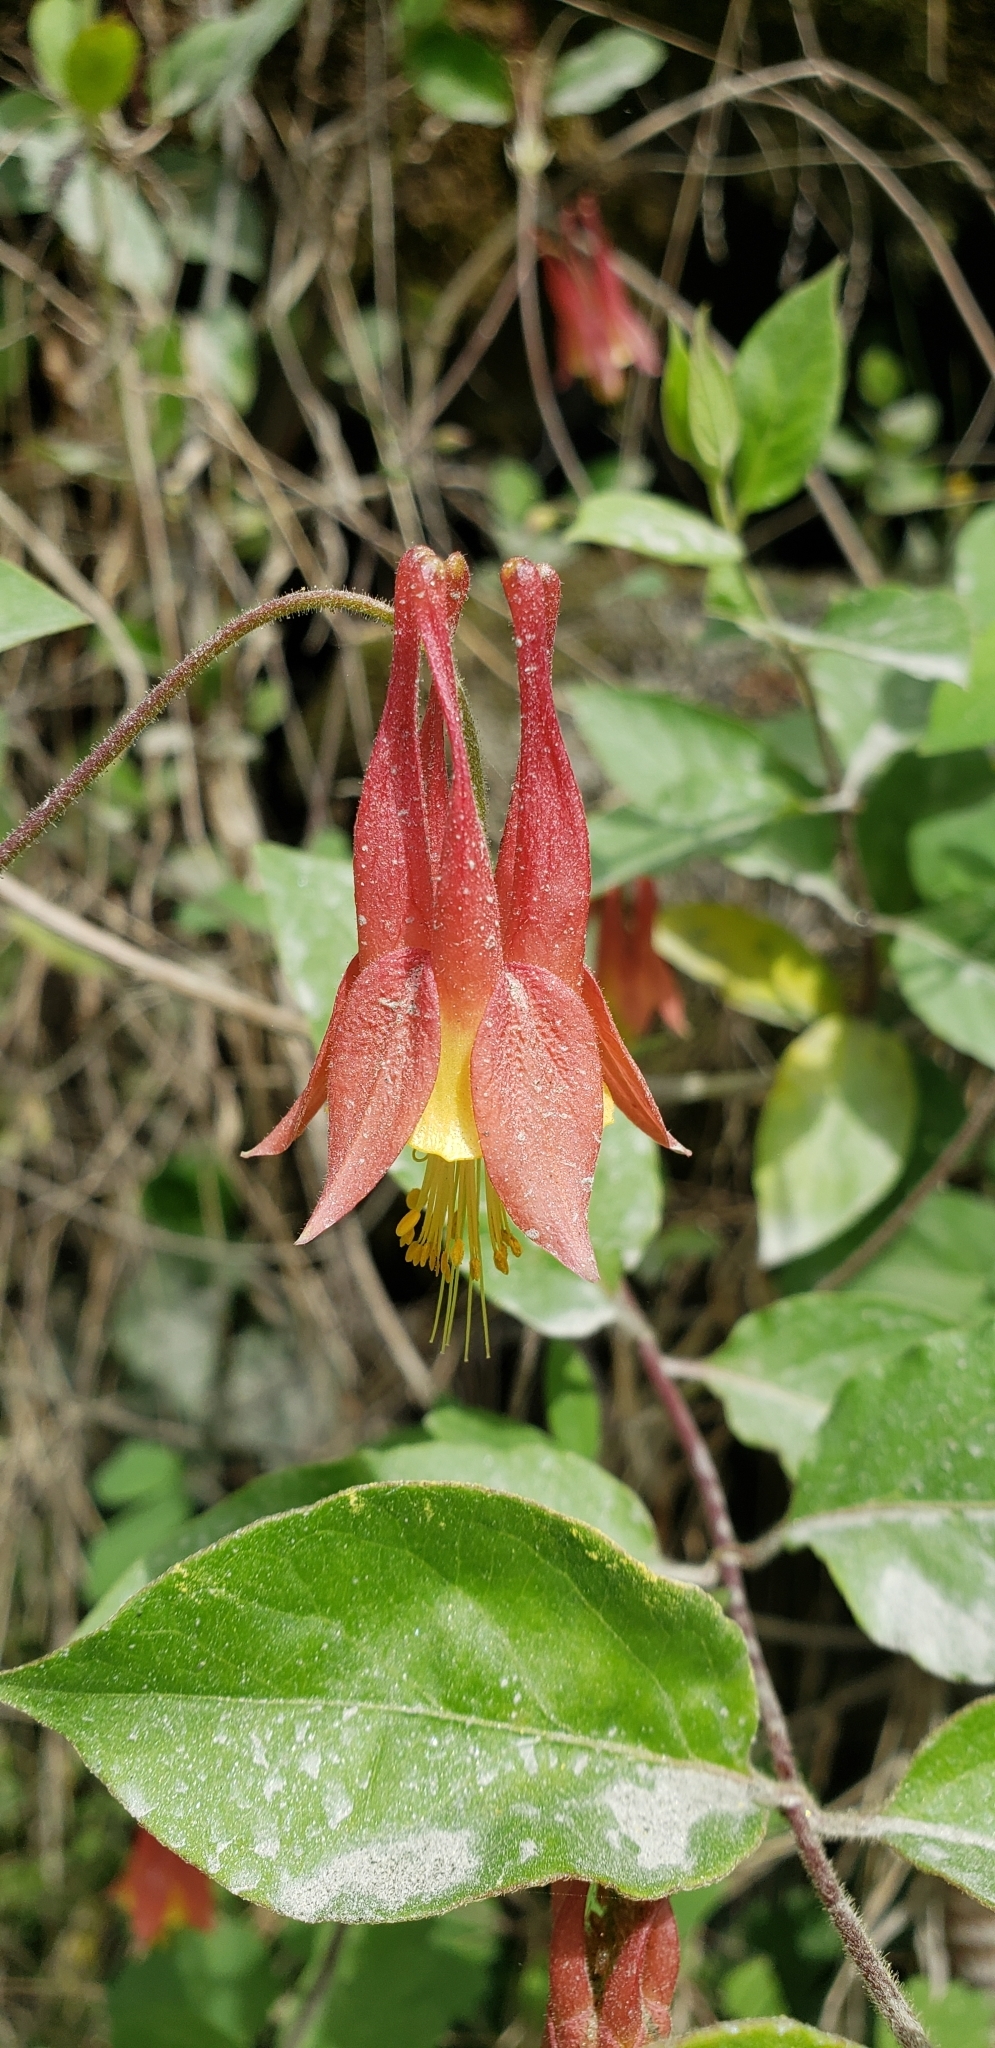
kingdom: Plantae
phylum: Tracheophyta
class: Magnoliopsida
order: Ranunculales
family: Ranunculaceae
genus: Aquilegia
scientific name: Aquilegia canadensis
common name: American columbine
